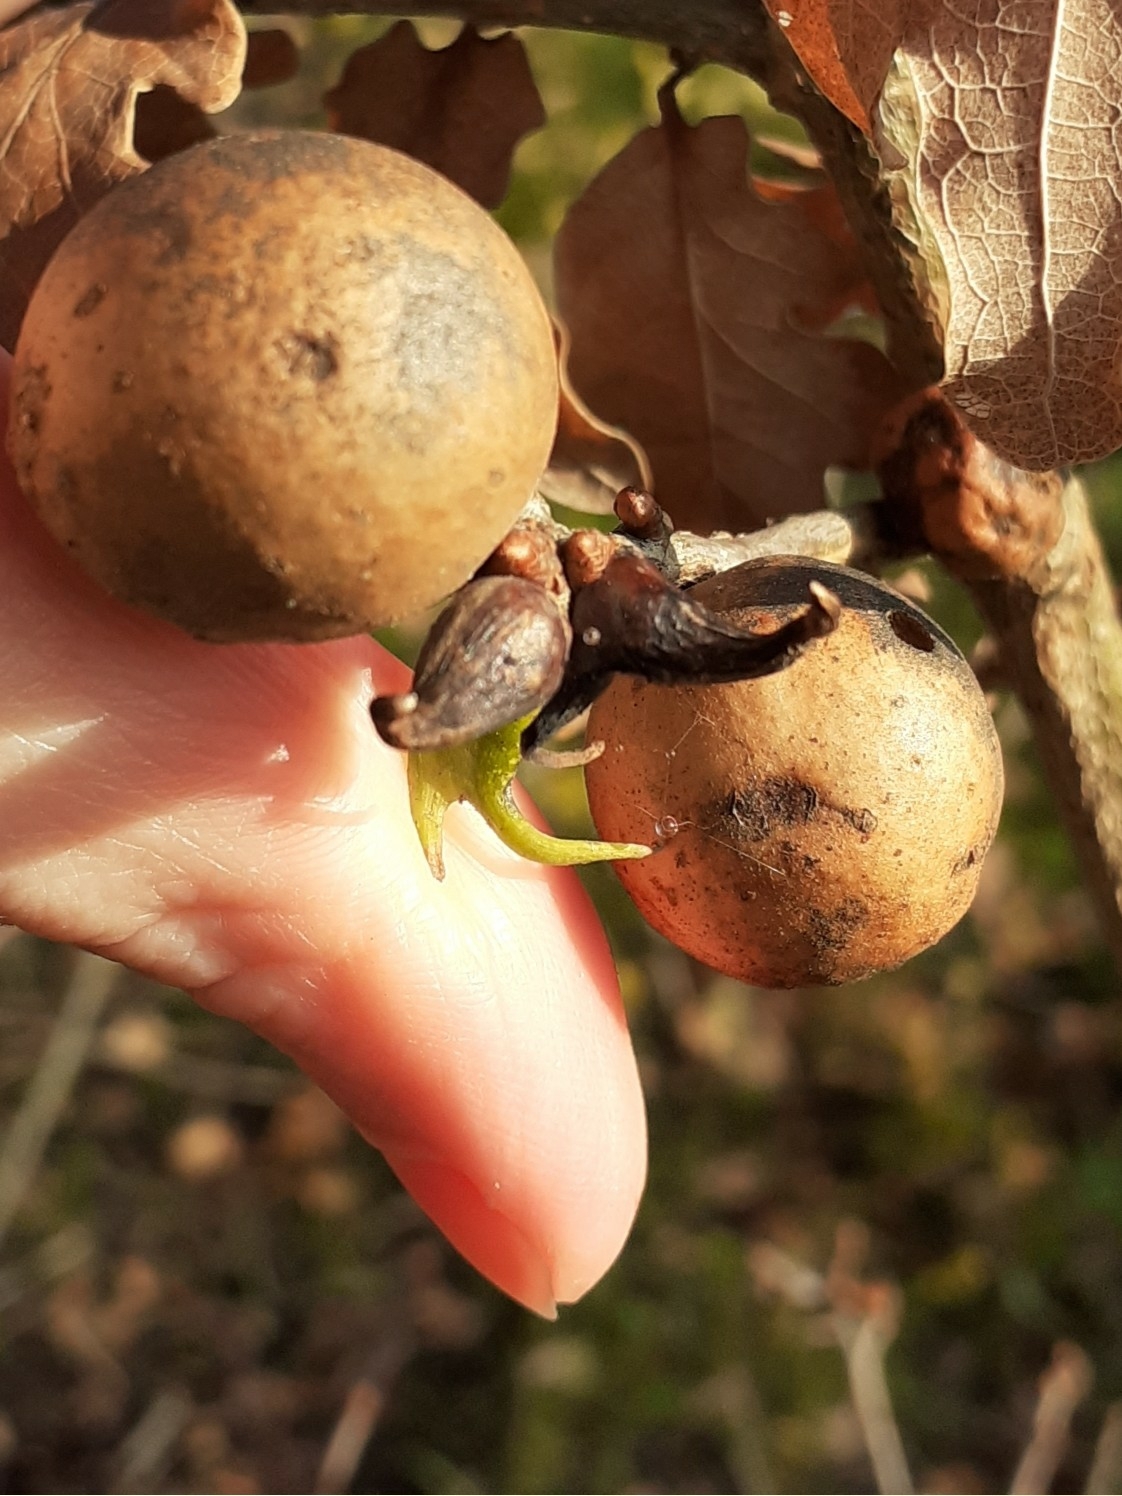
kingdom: Animalia
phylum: Arthropoda
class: Insecta
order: Hymenoptera
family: Cynipidae
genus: Andricus
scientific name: Andricus aries
